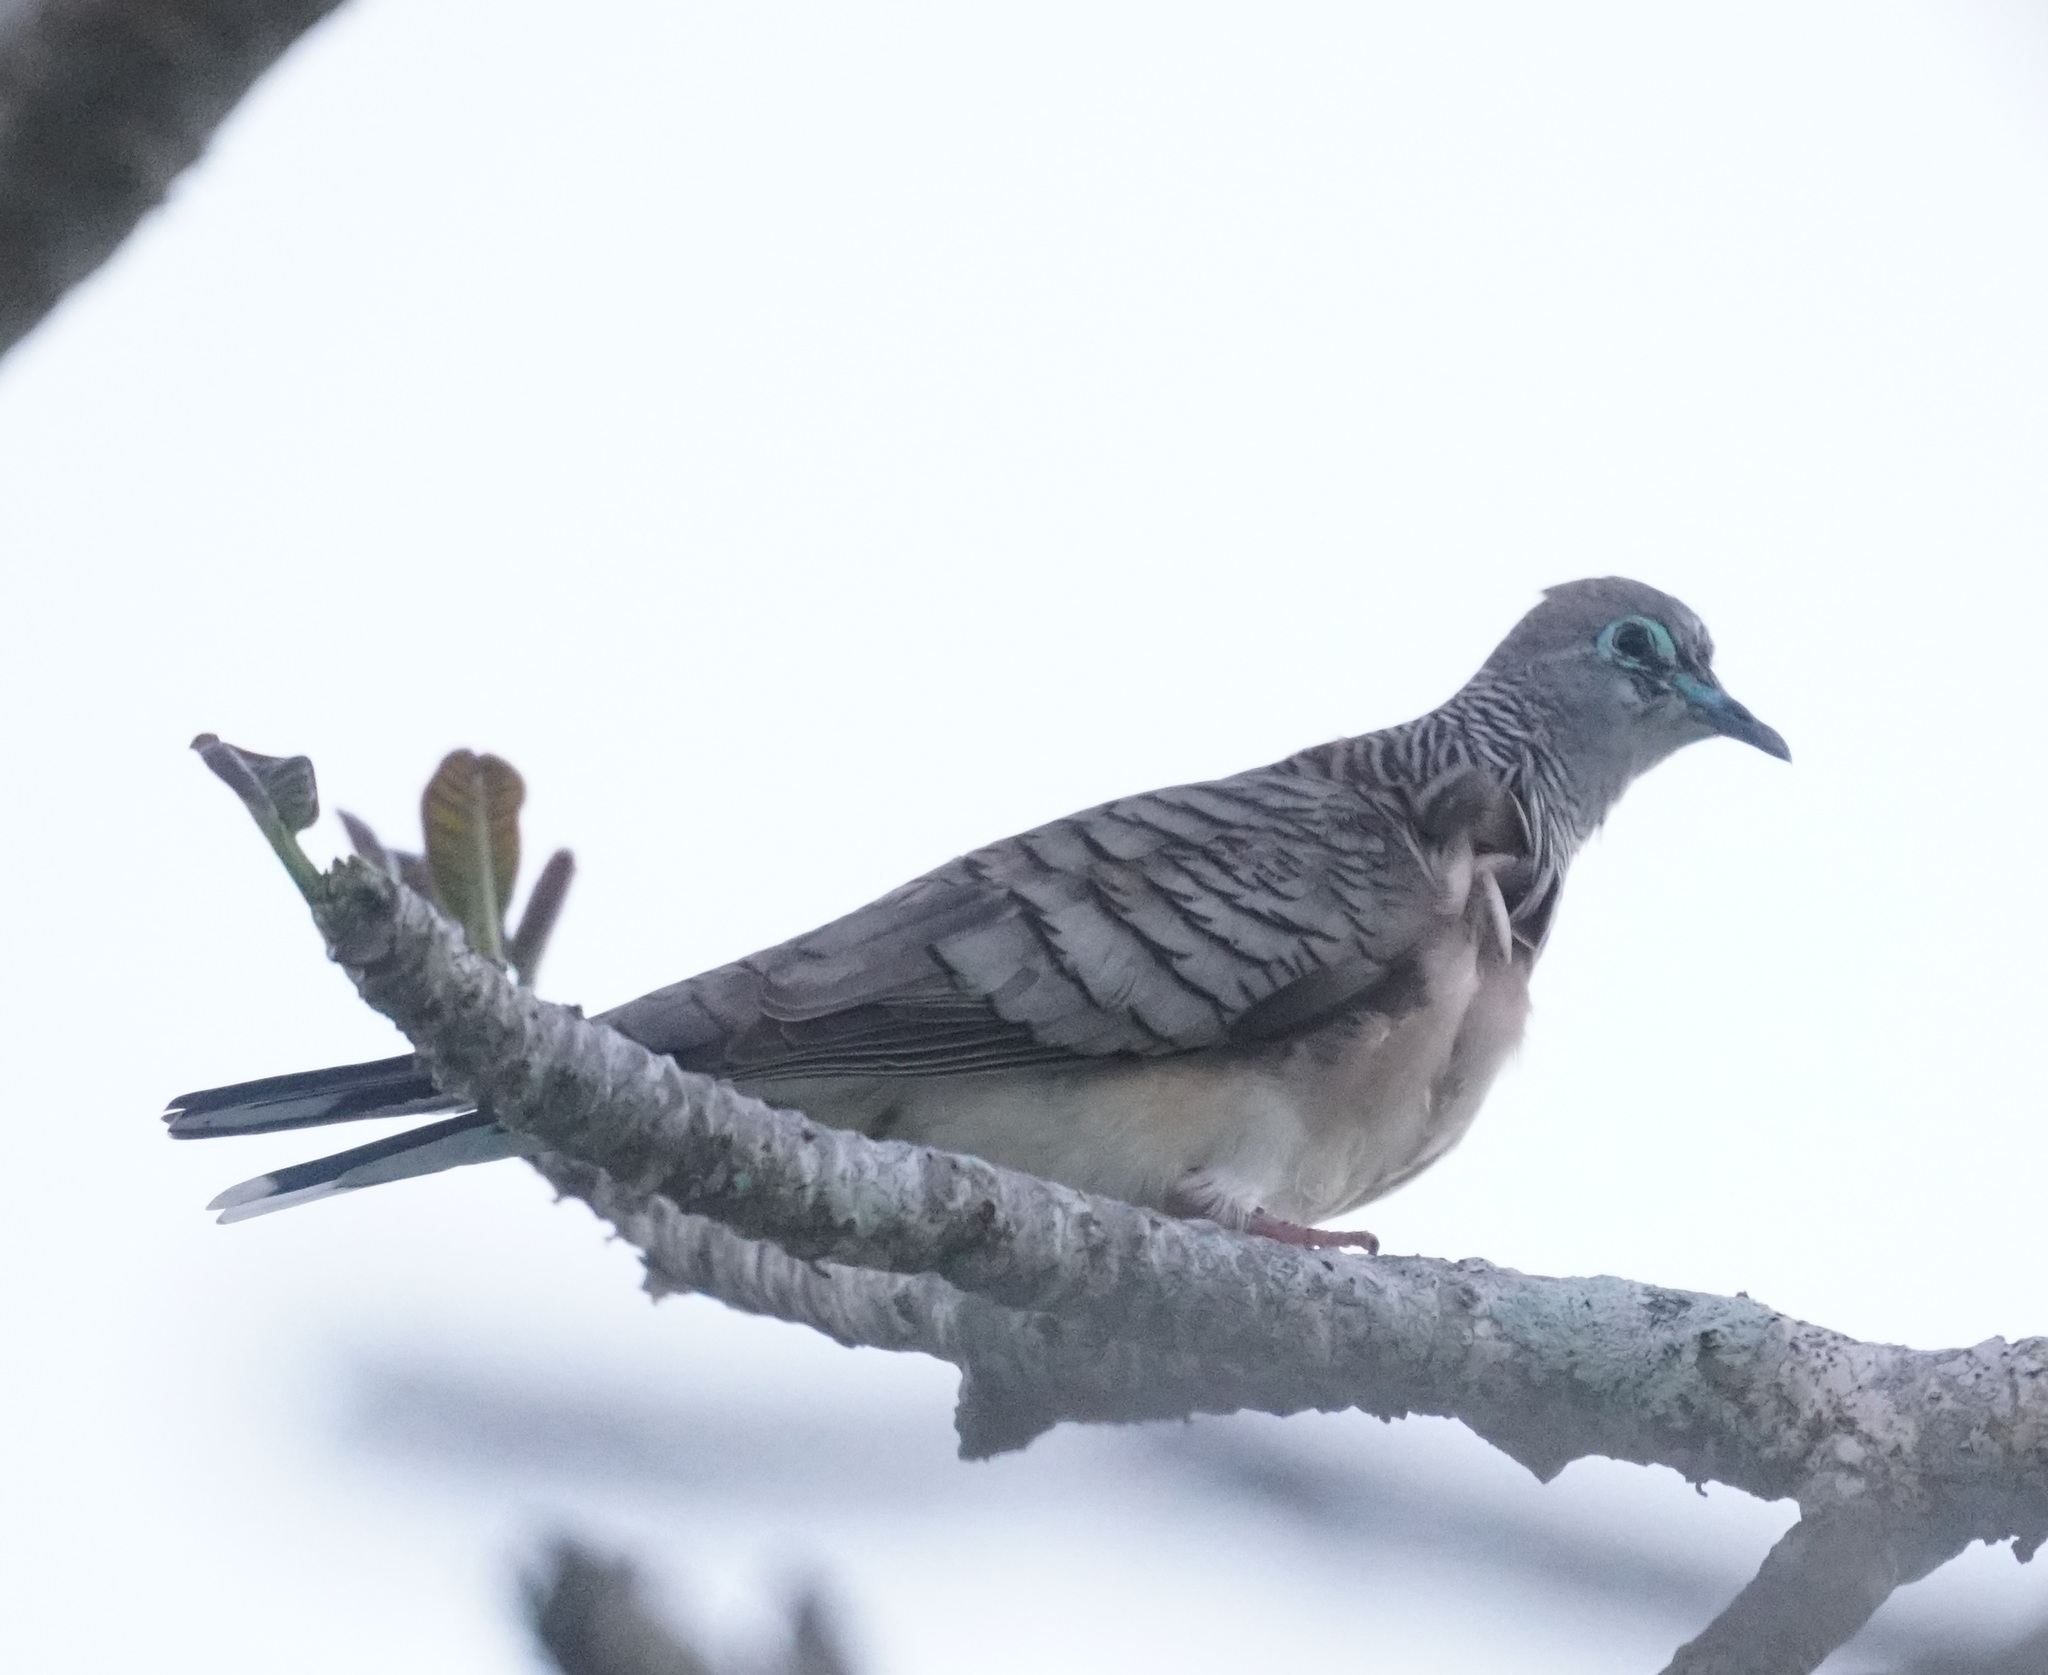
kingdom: Animalia
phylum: Chordata
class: Aves
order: Columbiformes
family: Columbidae
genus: Geopelia
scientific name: Geopelia placida
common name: Peaceful dove
